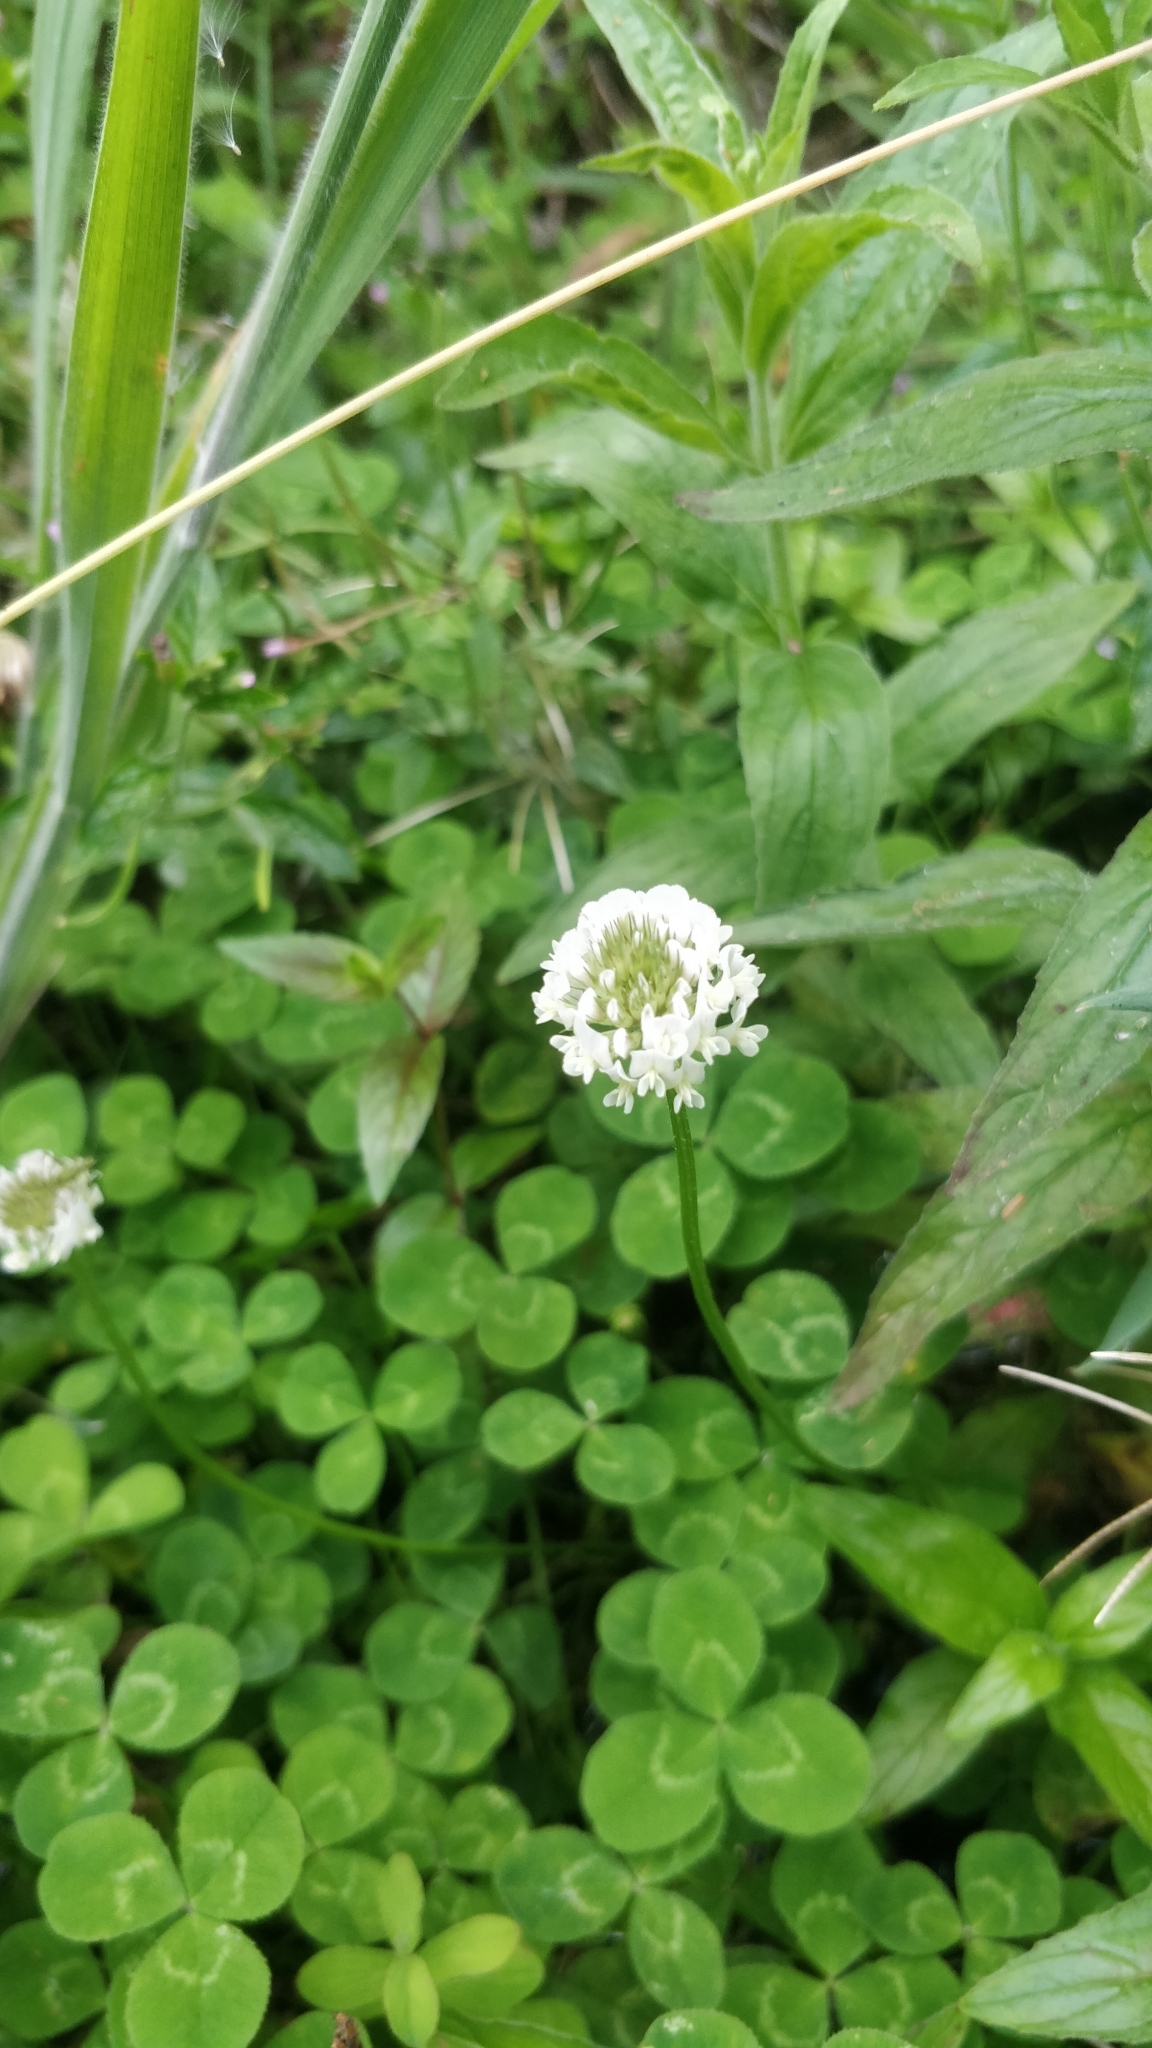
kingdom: Plantae
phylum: Tracheophyta
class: Magnoliopsida
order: Fabales
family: Fabaceae
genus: Trifolium
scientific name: Trifolium repens
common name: White clover
